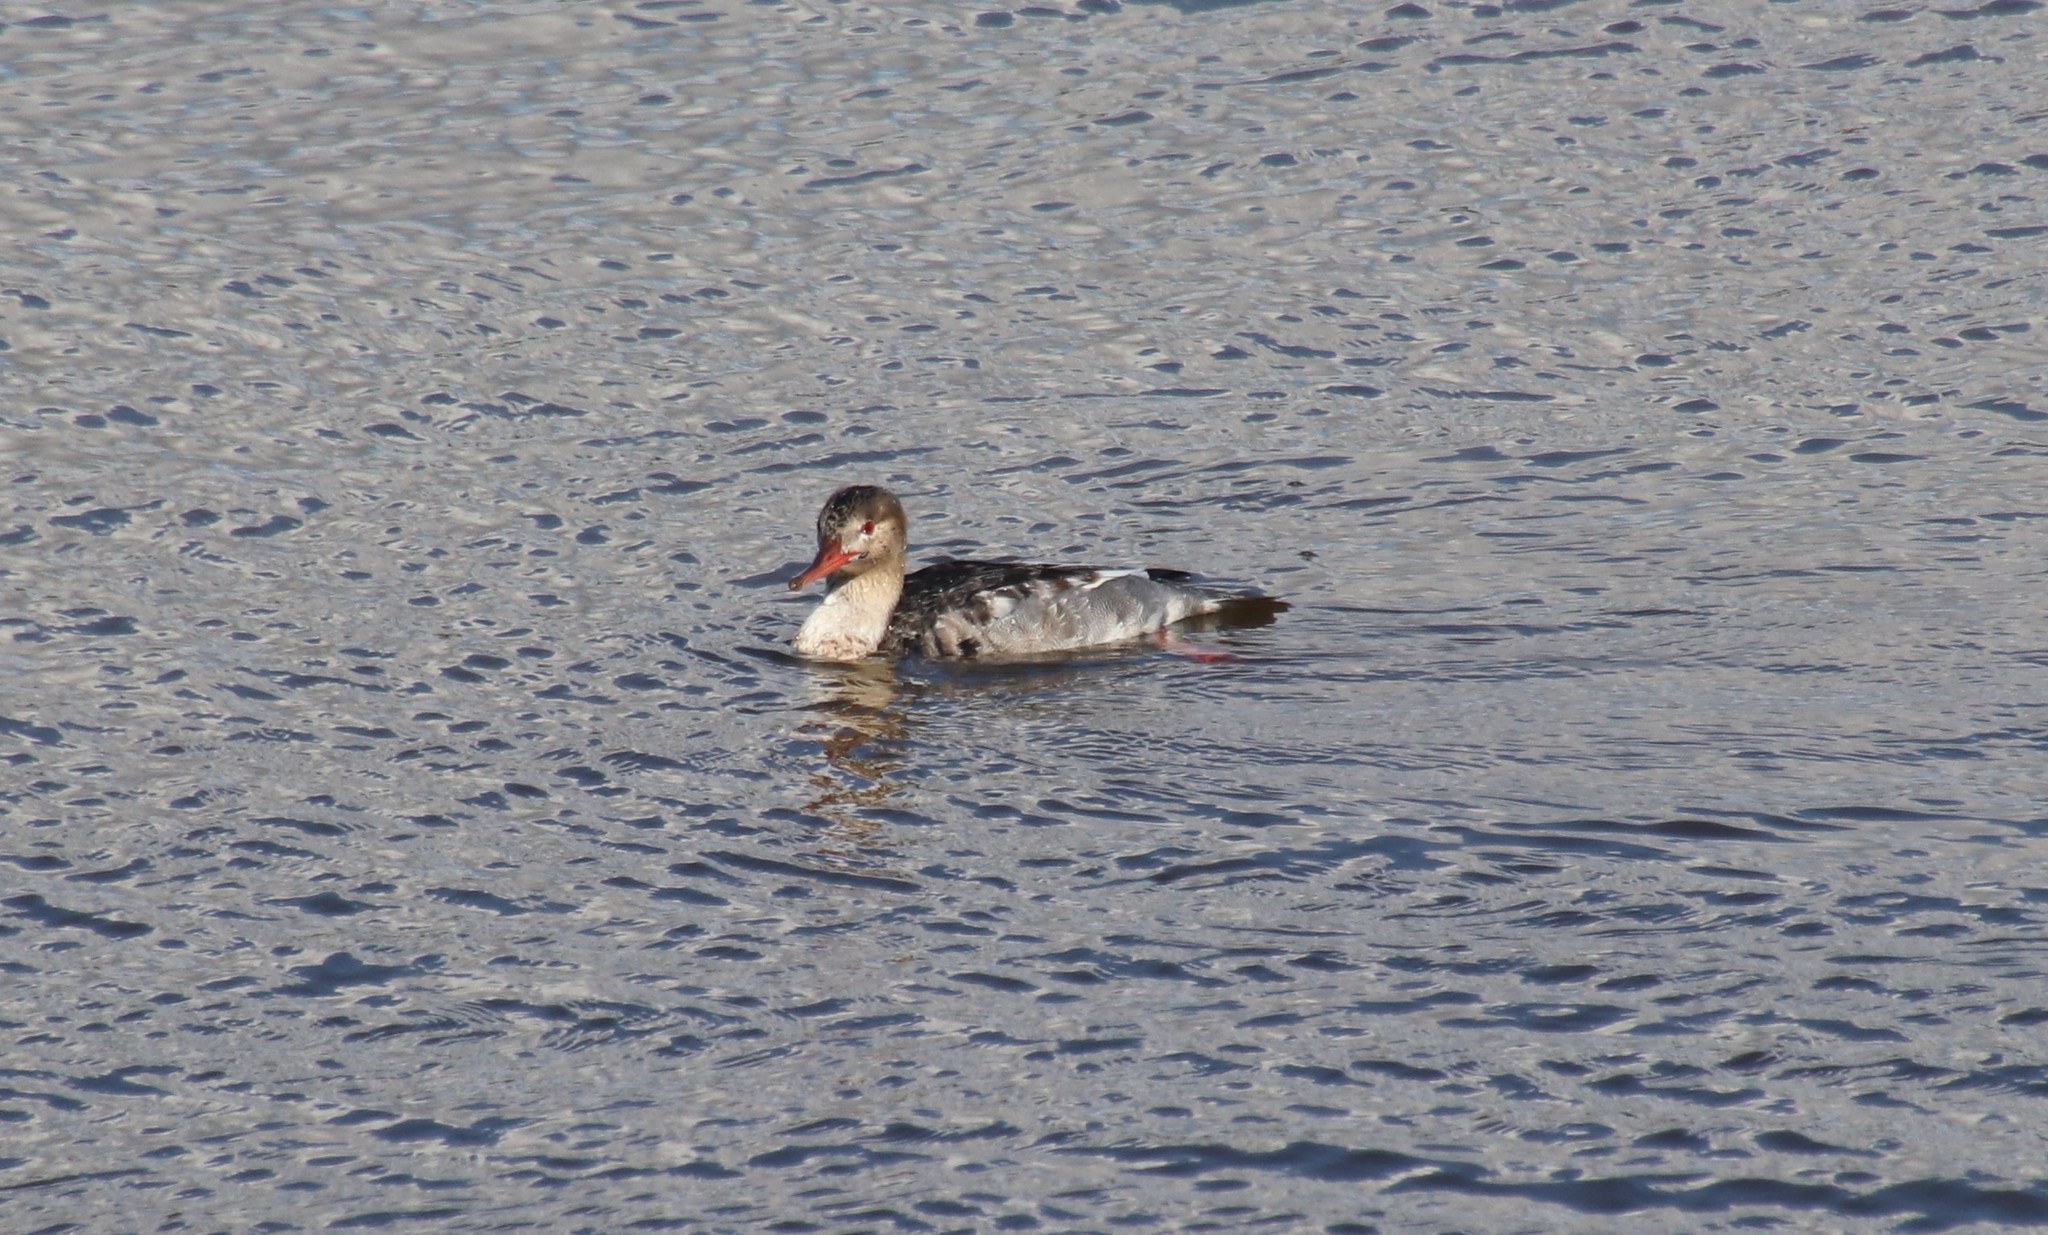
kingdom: Animalia
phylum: Chordata
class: Aves
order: Anseriformes
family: Anatidae
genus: Mergus
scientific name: Mergus serrator
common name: Red-breasted merganser
